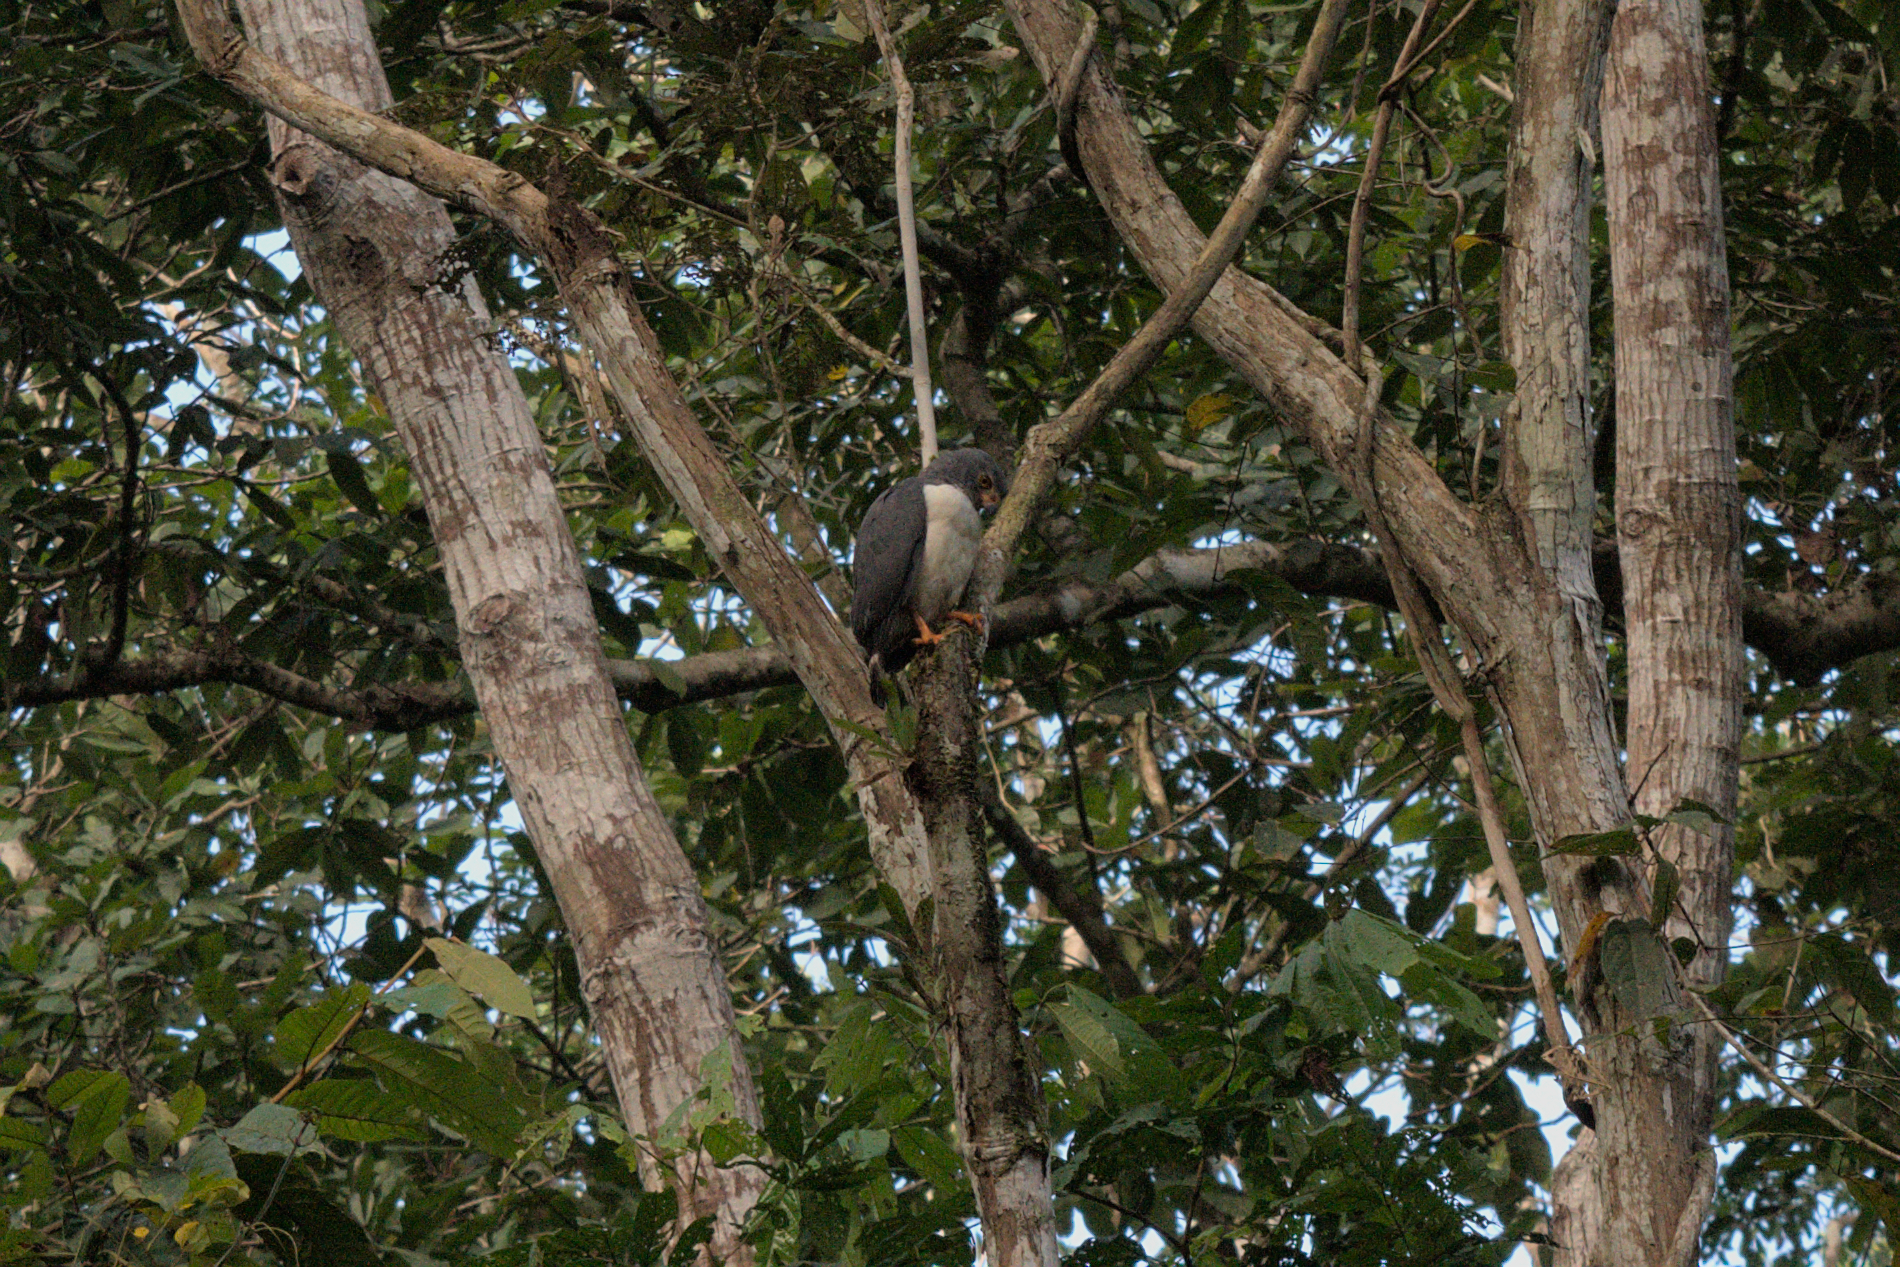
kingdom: Animalia
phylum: Chordata
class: Aves
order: Accipitriformes
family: Accipitridae
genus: Leucopternis
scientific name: Leucopternis semiplumbeus
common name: Semiplumbeous hawk
